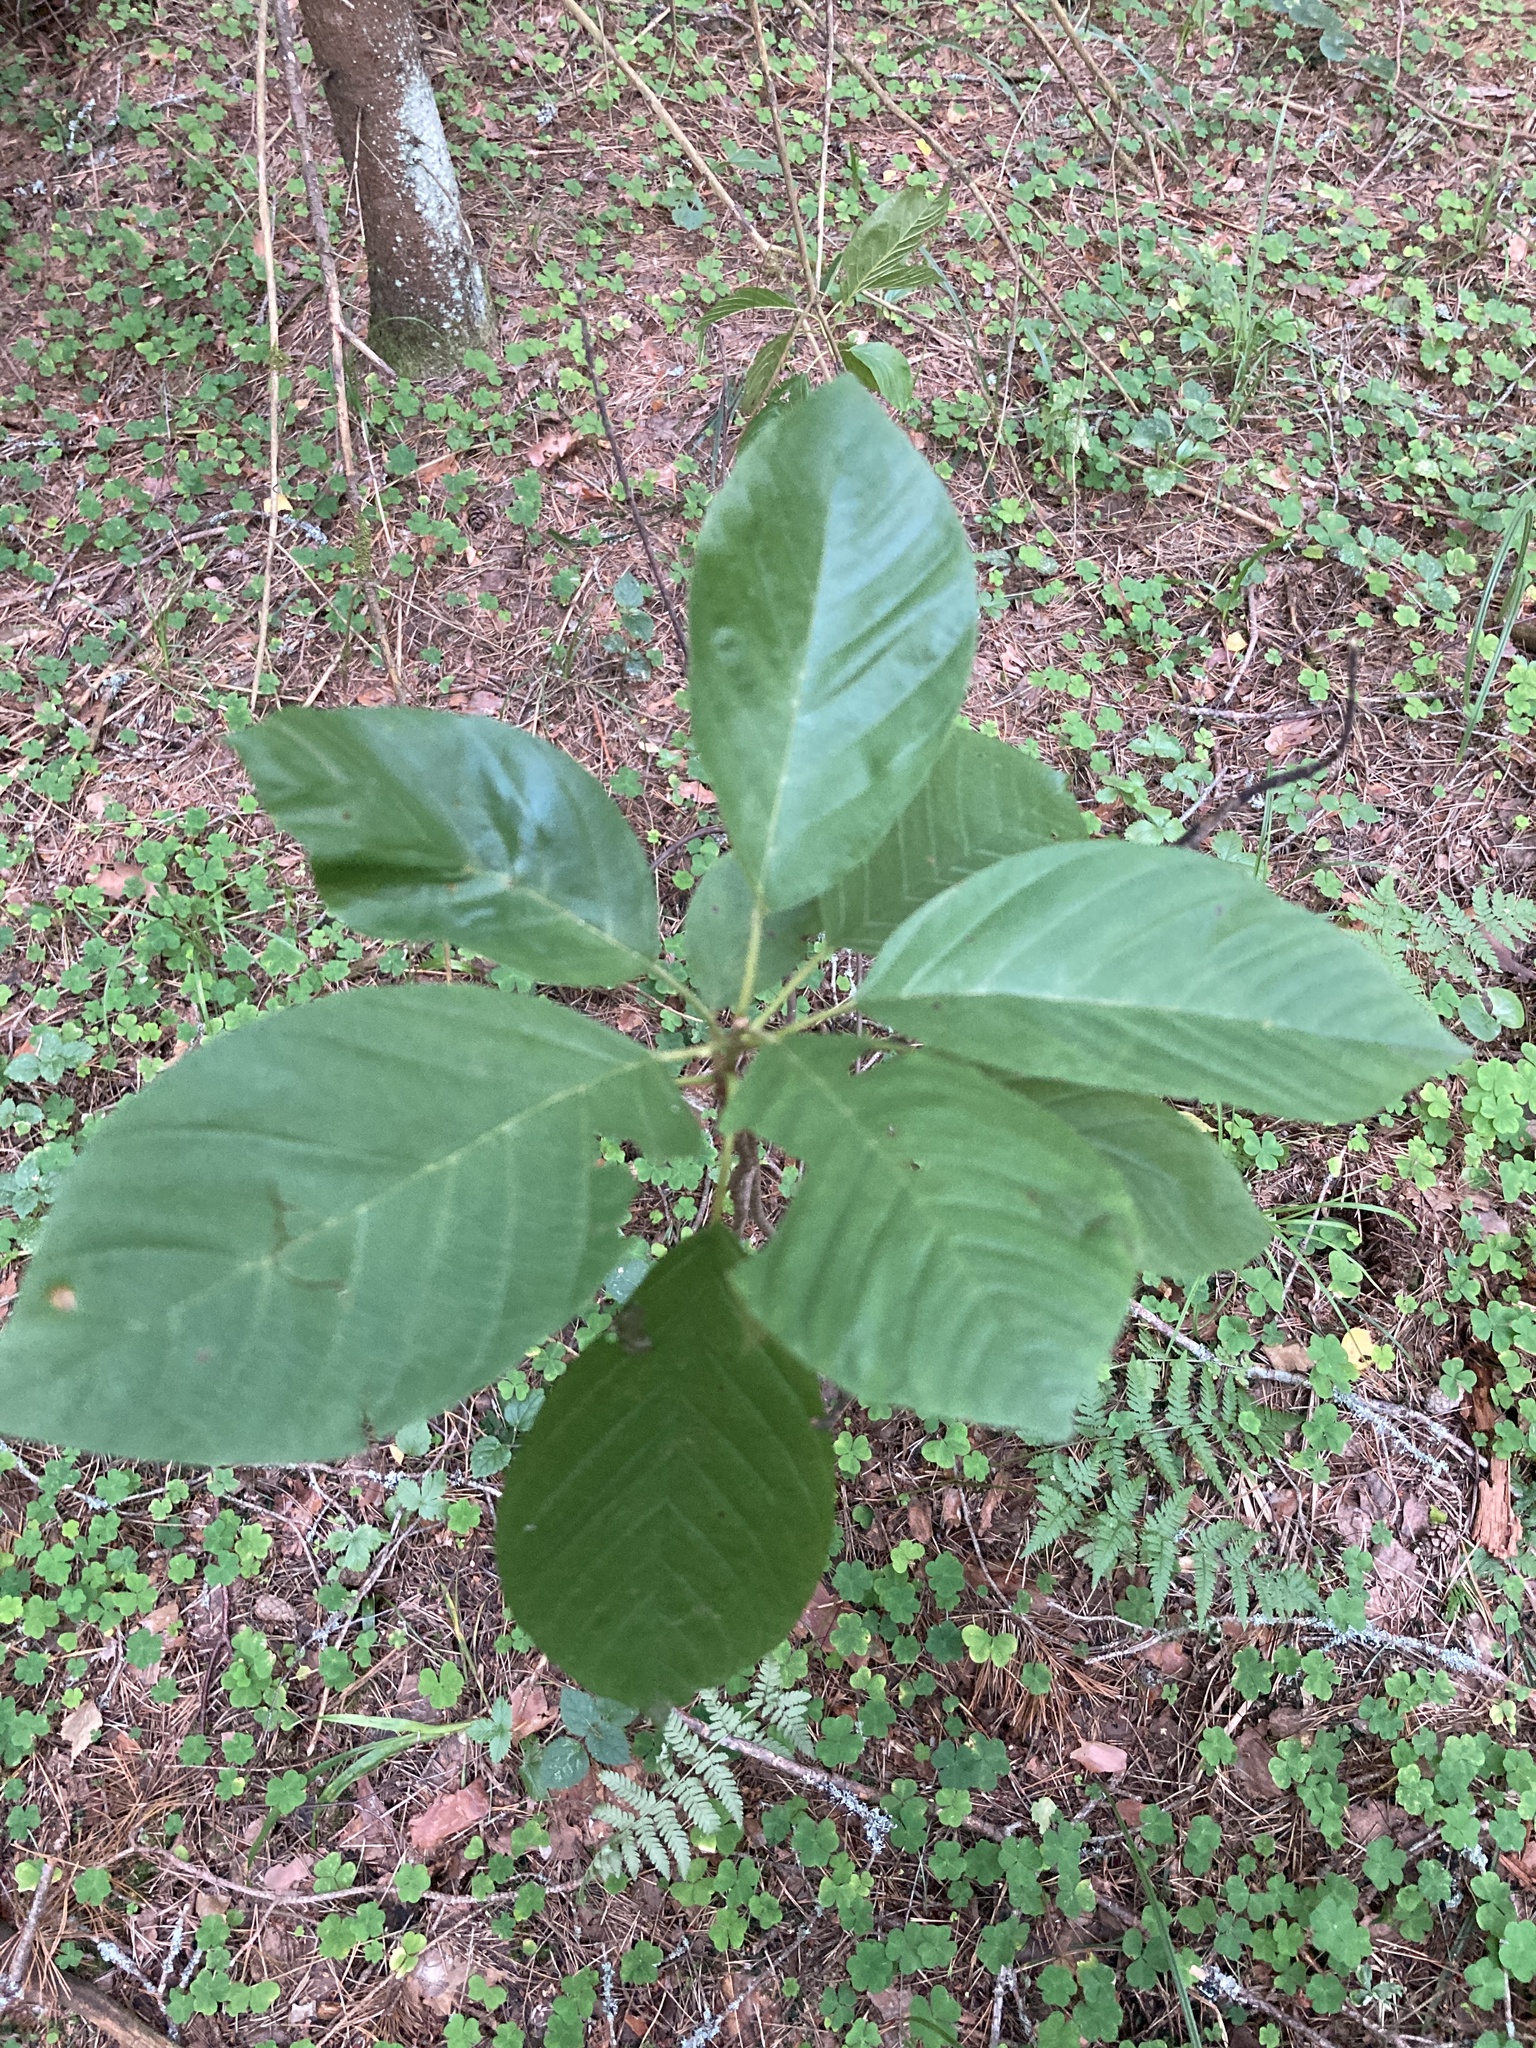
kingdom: Plantae
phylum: Tracheophyta
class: Magnoliopsida
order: Rosales
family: Rhamnaceae
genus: Frangula
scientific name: Frangula alnus
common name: Alder buckthorn
